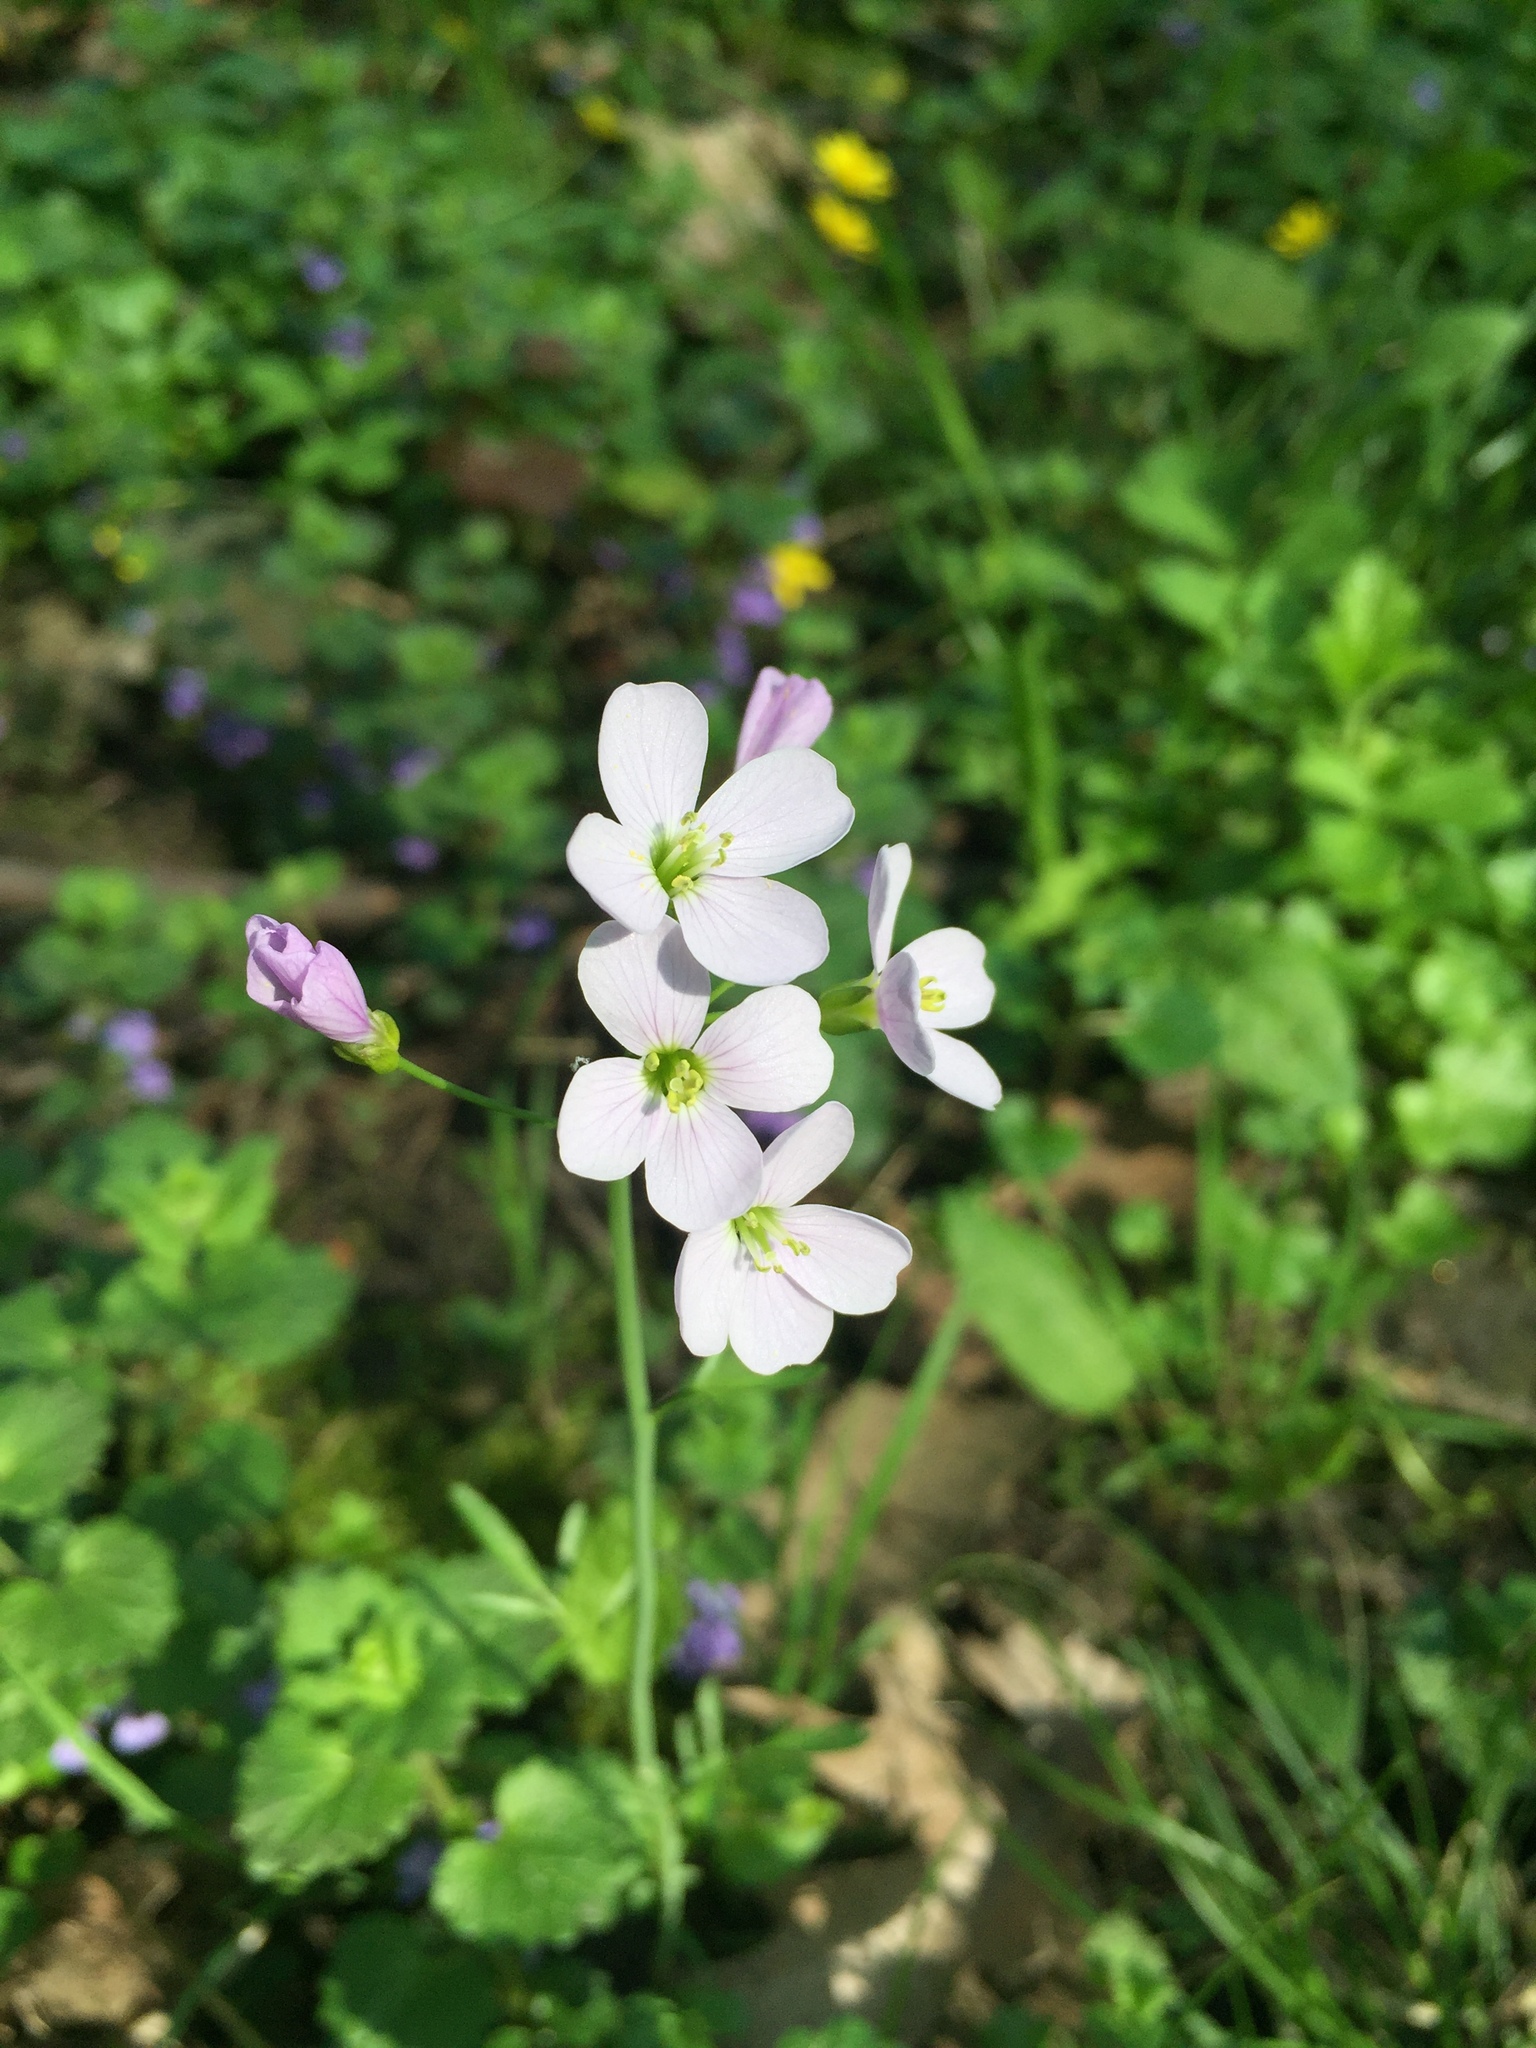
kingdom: Plantae
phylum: Tracheophyta
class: Magnoliopsida
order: Brassicales
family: Brassicaceae
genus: Cardamine
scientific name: Cardamine pratensis
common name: Cuckoo flower
